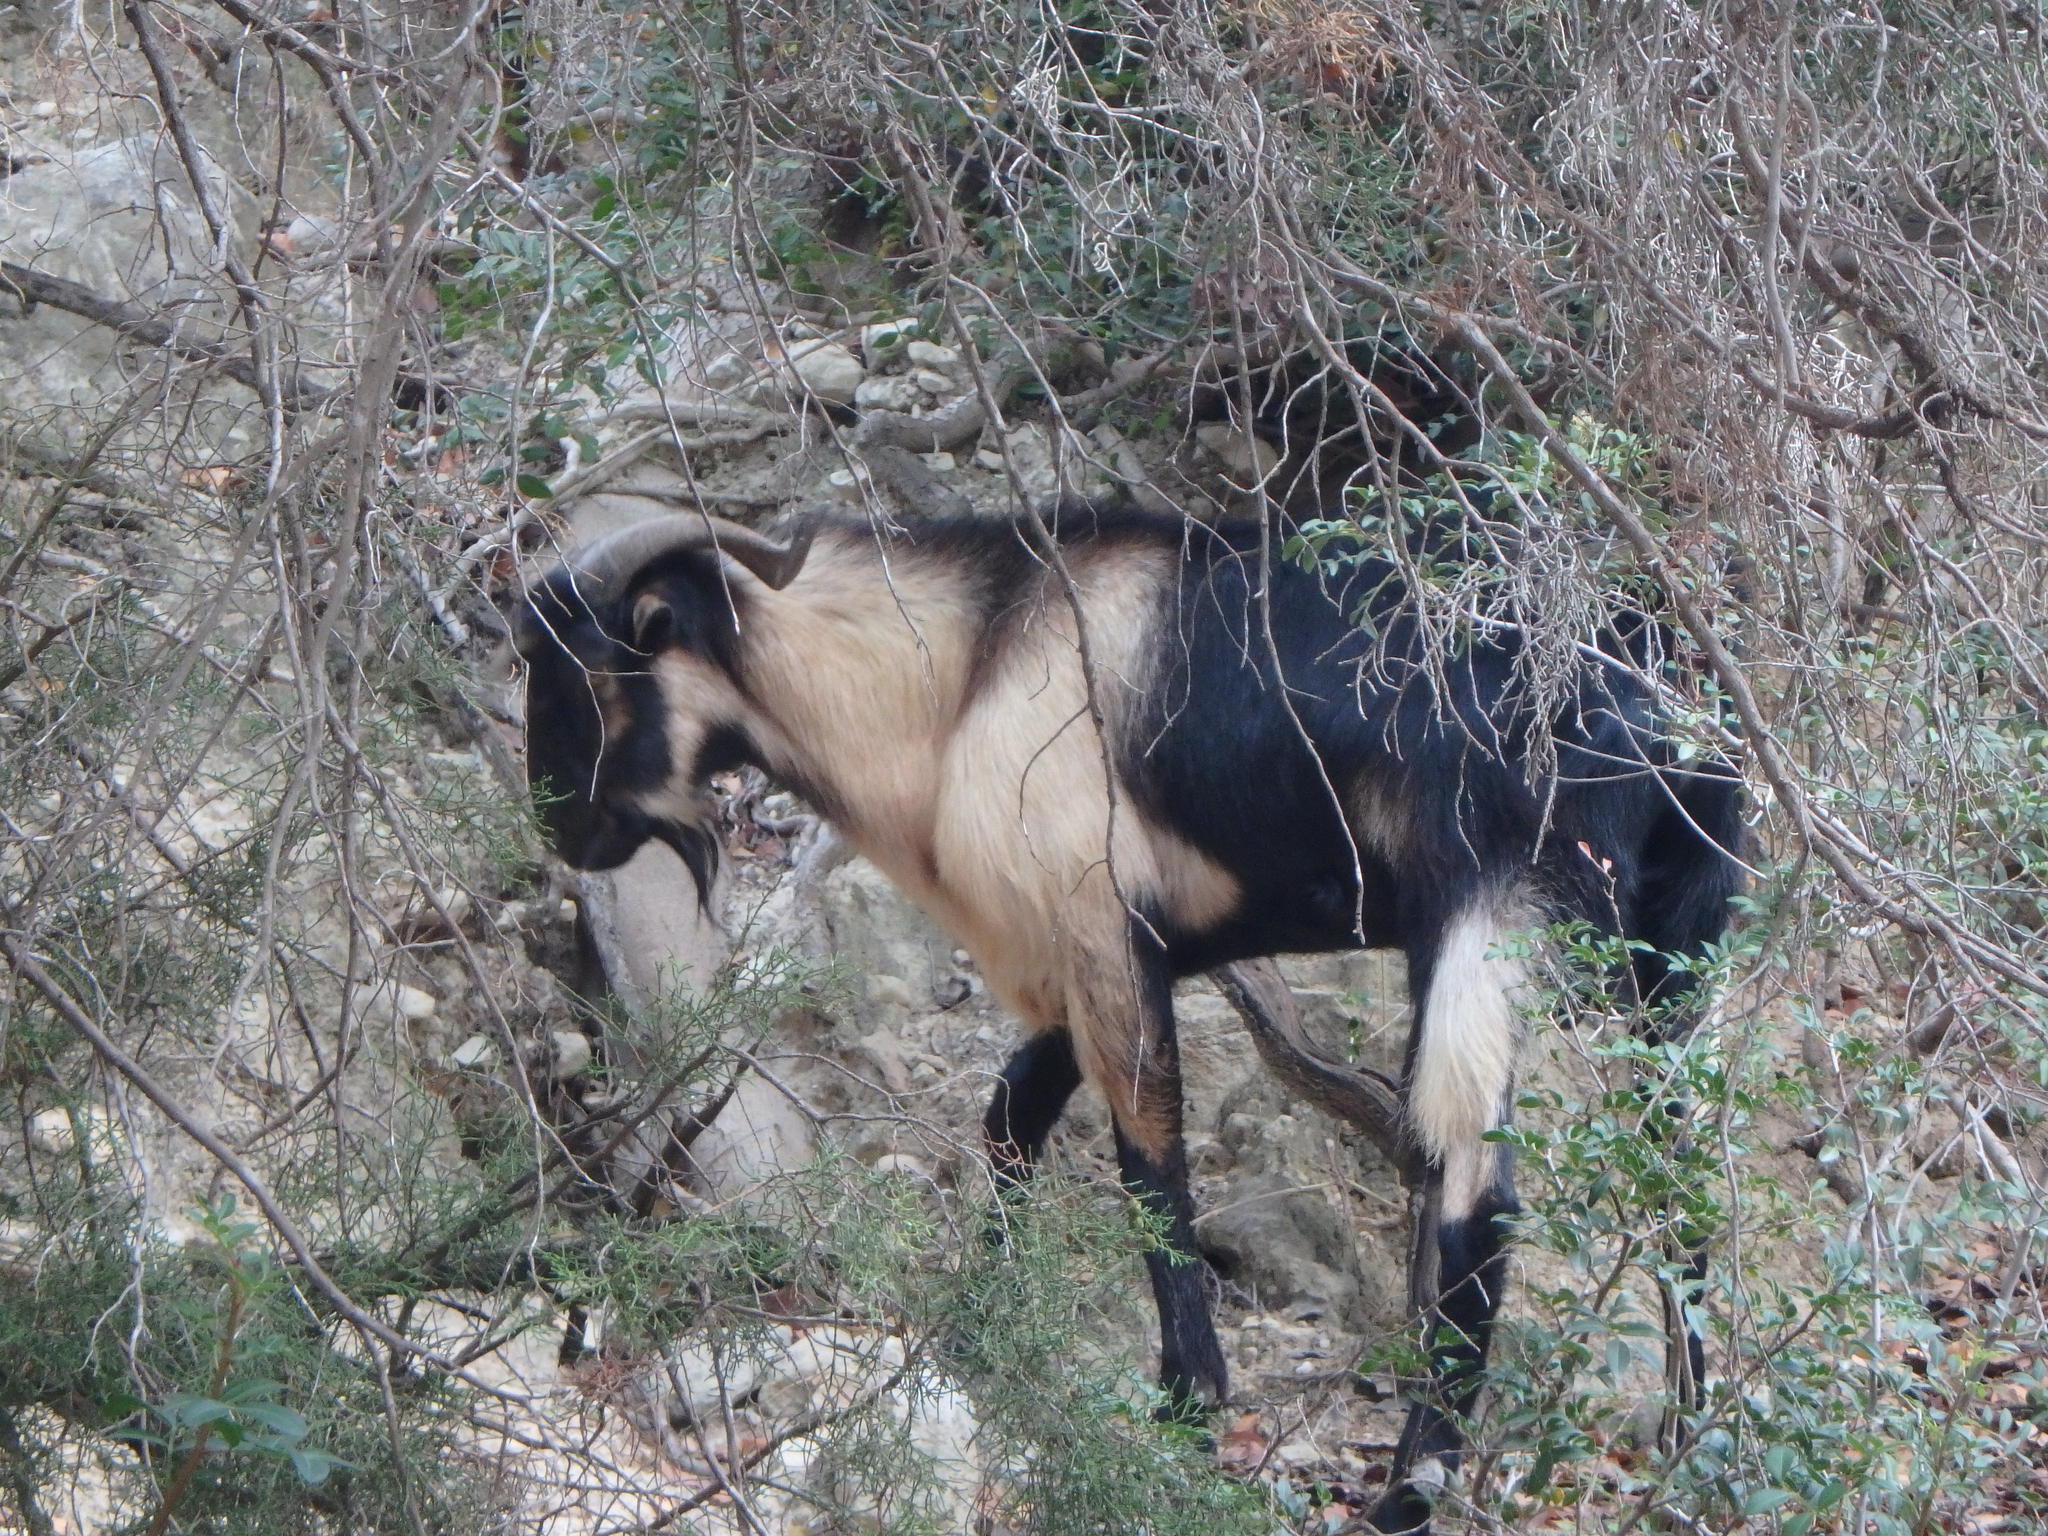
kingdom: Animalia
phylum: Chordata
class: Mammalia
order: Artiodactyla
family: Bovidae
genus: Capra
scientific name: Capra hircus
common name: Domestic goat
